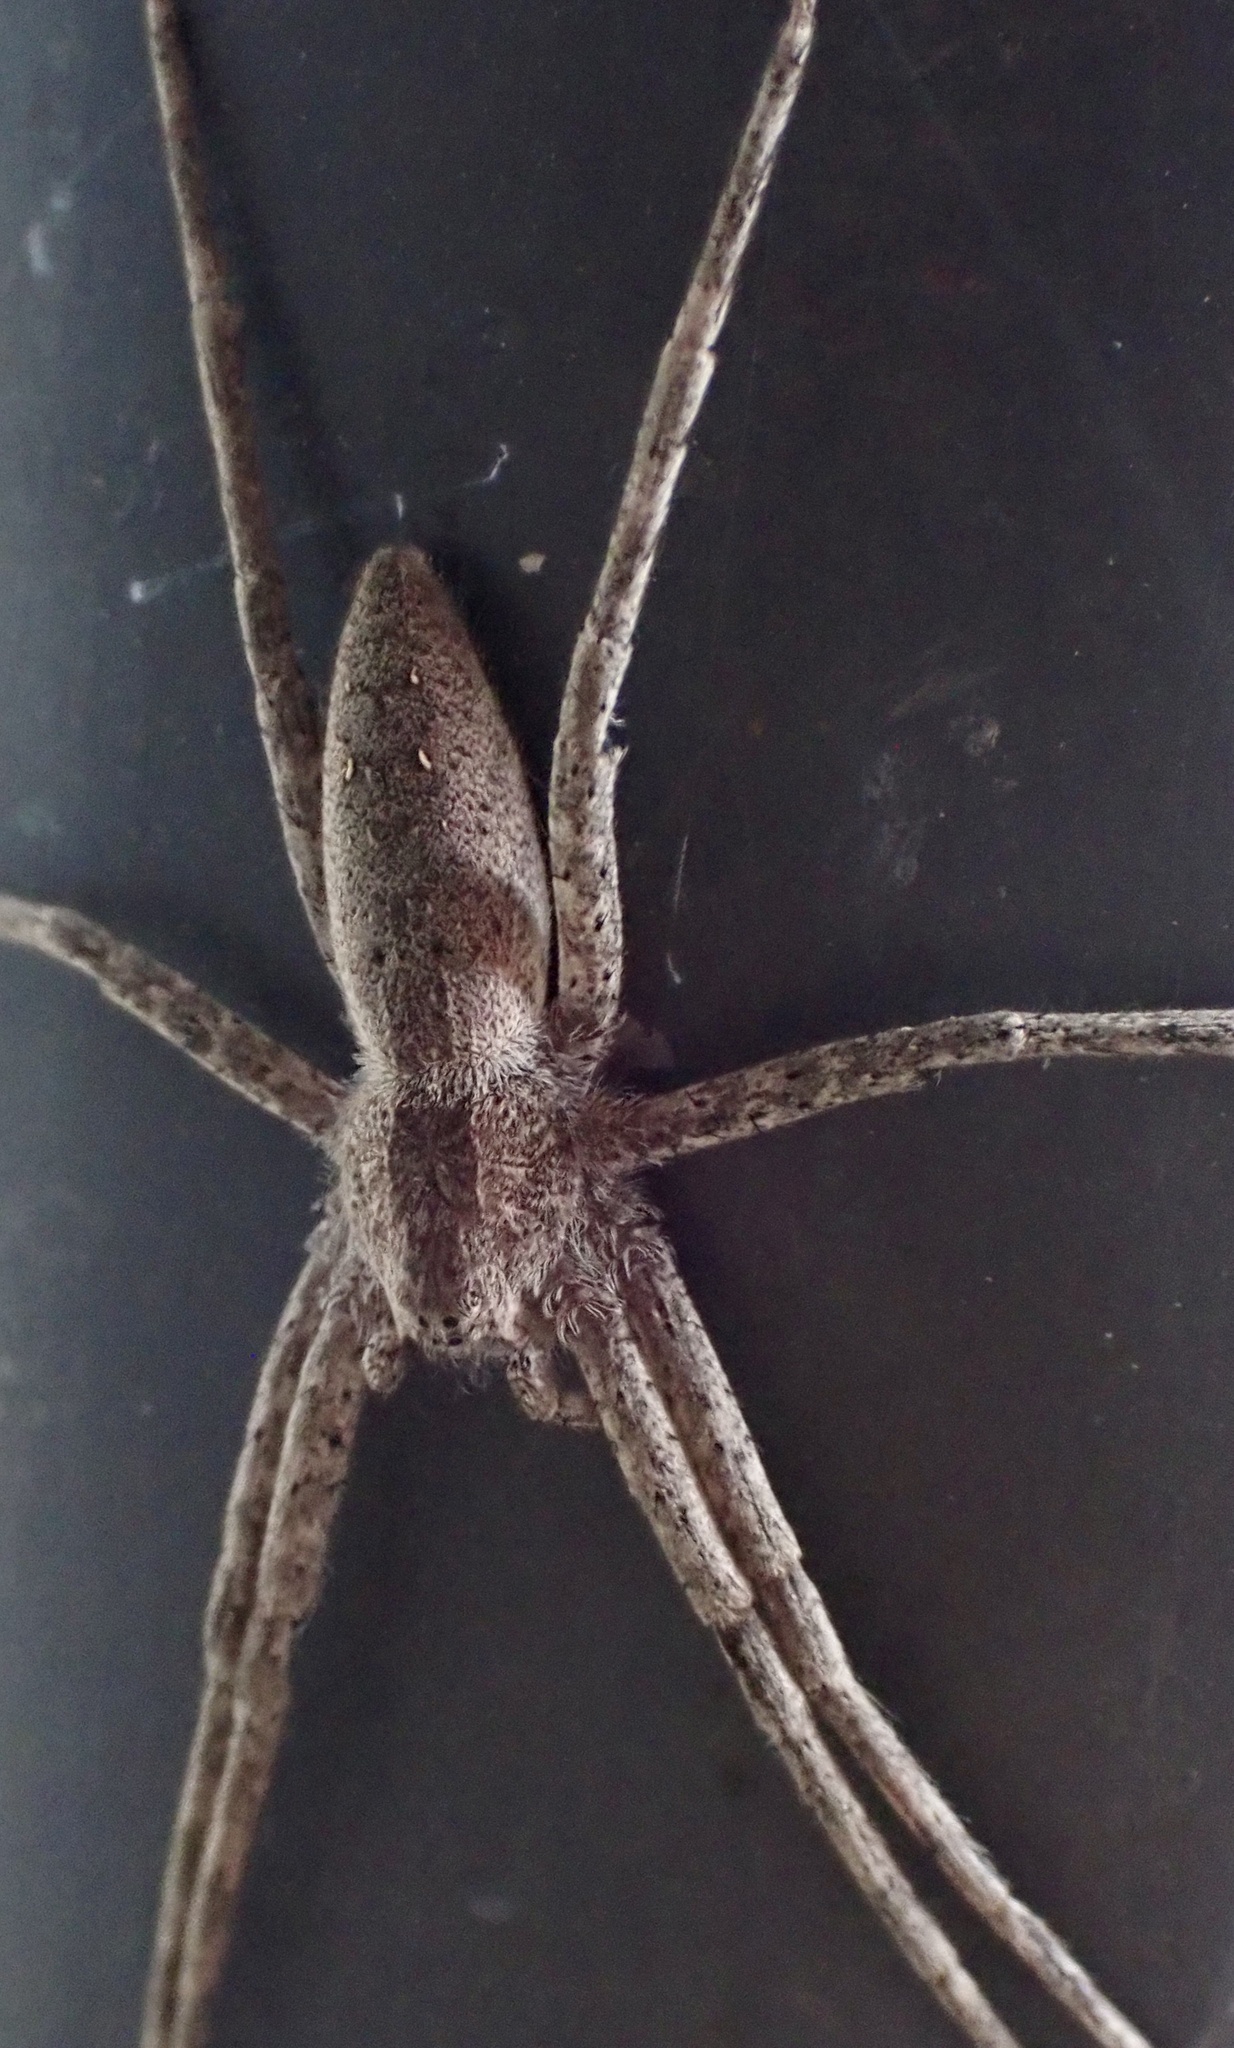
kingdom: Animalia
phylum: Arthropoda
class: Arachnida
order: Araneae
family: Pisauridae
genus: Pisaurina
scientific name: Pisaurina mira
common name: American nursery web spider
